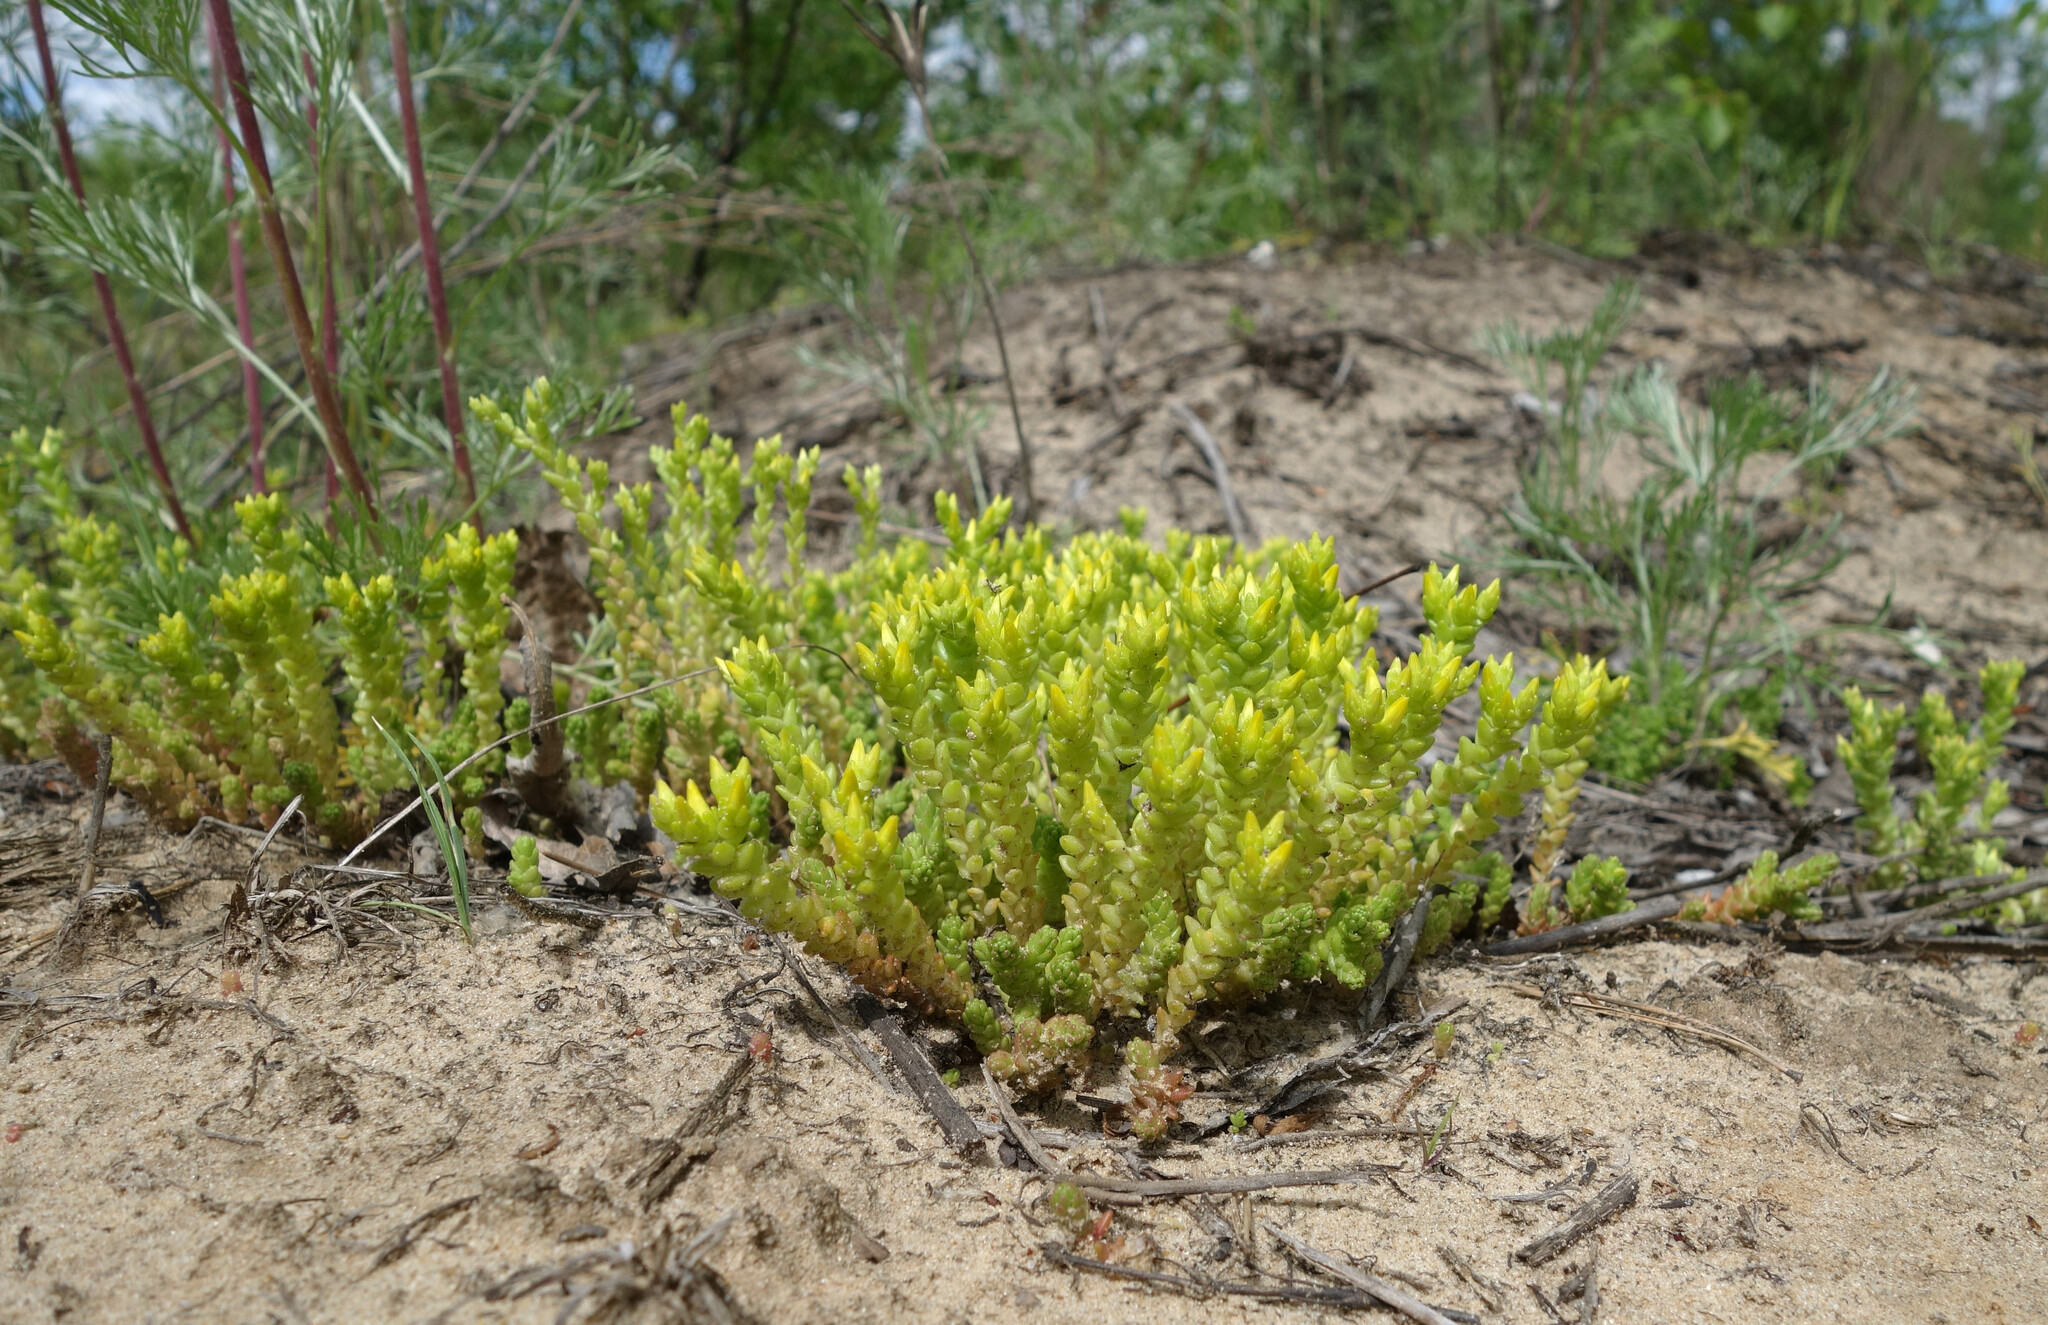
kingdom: Plantae
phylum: Tracheophyta
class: Magnoliopsida
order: Saxifragales
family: Crassulaceae
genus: Sedum
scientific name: Sedum acre
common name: Biting stonecrop
